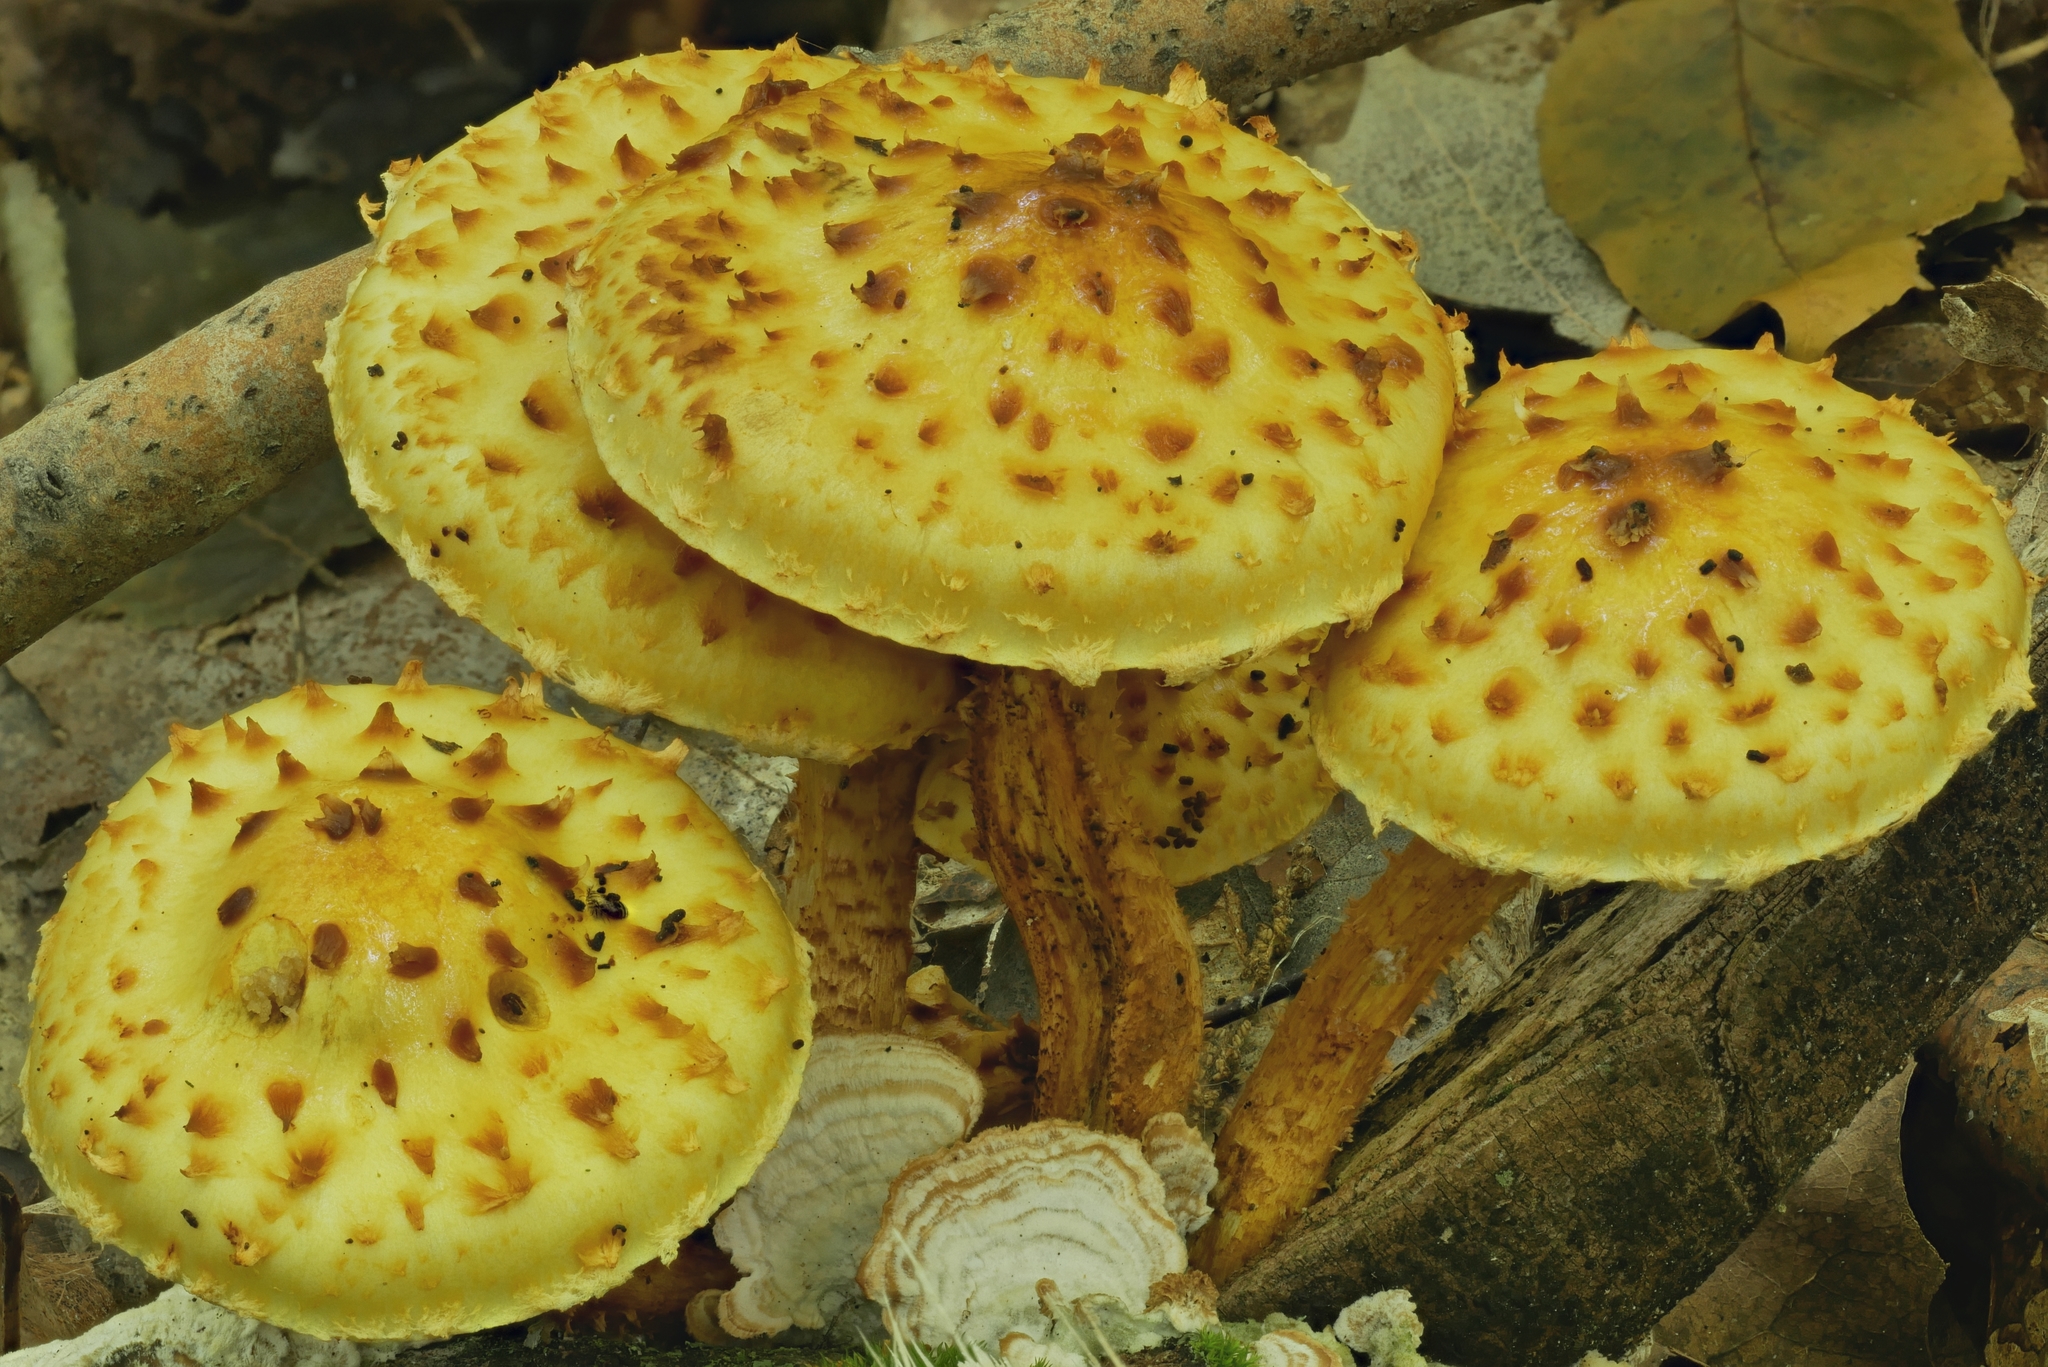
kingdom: Fungi
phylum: Basidiomycota
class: Agaricomycetes
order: Agaricales
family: Strophariaceae
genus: Pholiota
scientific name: Pholiota limonella
